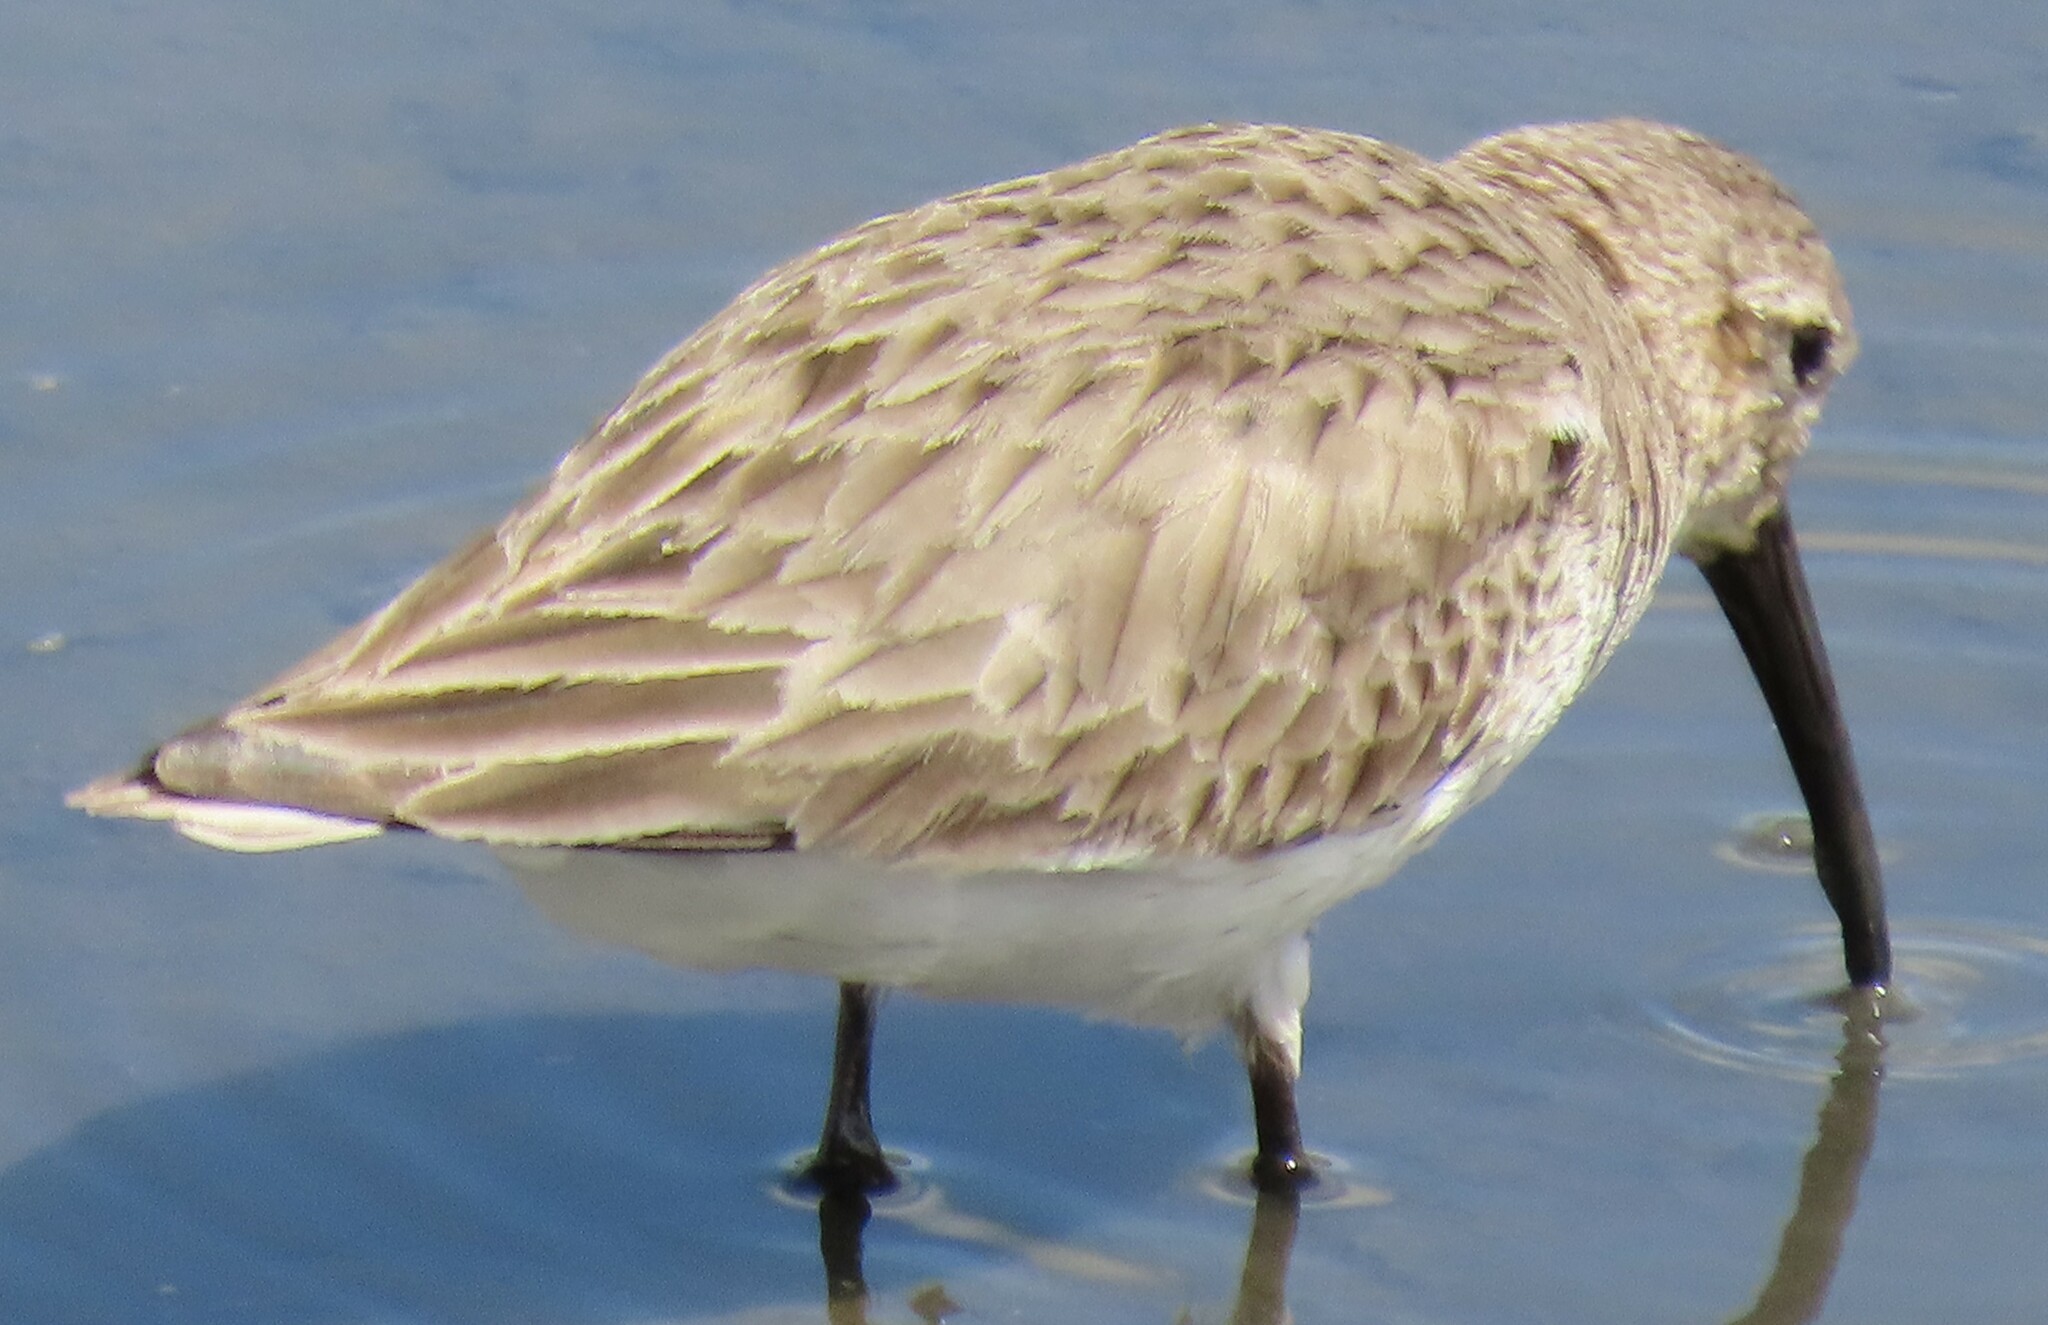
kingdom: Animalia
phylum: Chordata
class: Aves
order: Charadriiformes
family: Scolopacidae
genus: Calidris
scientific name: Calidris alpina
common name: Dunlin
